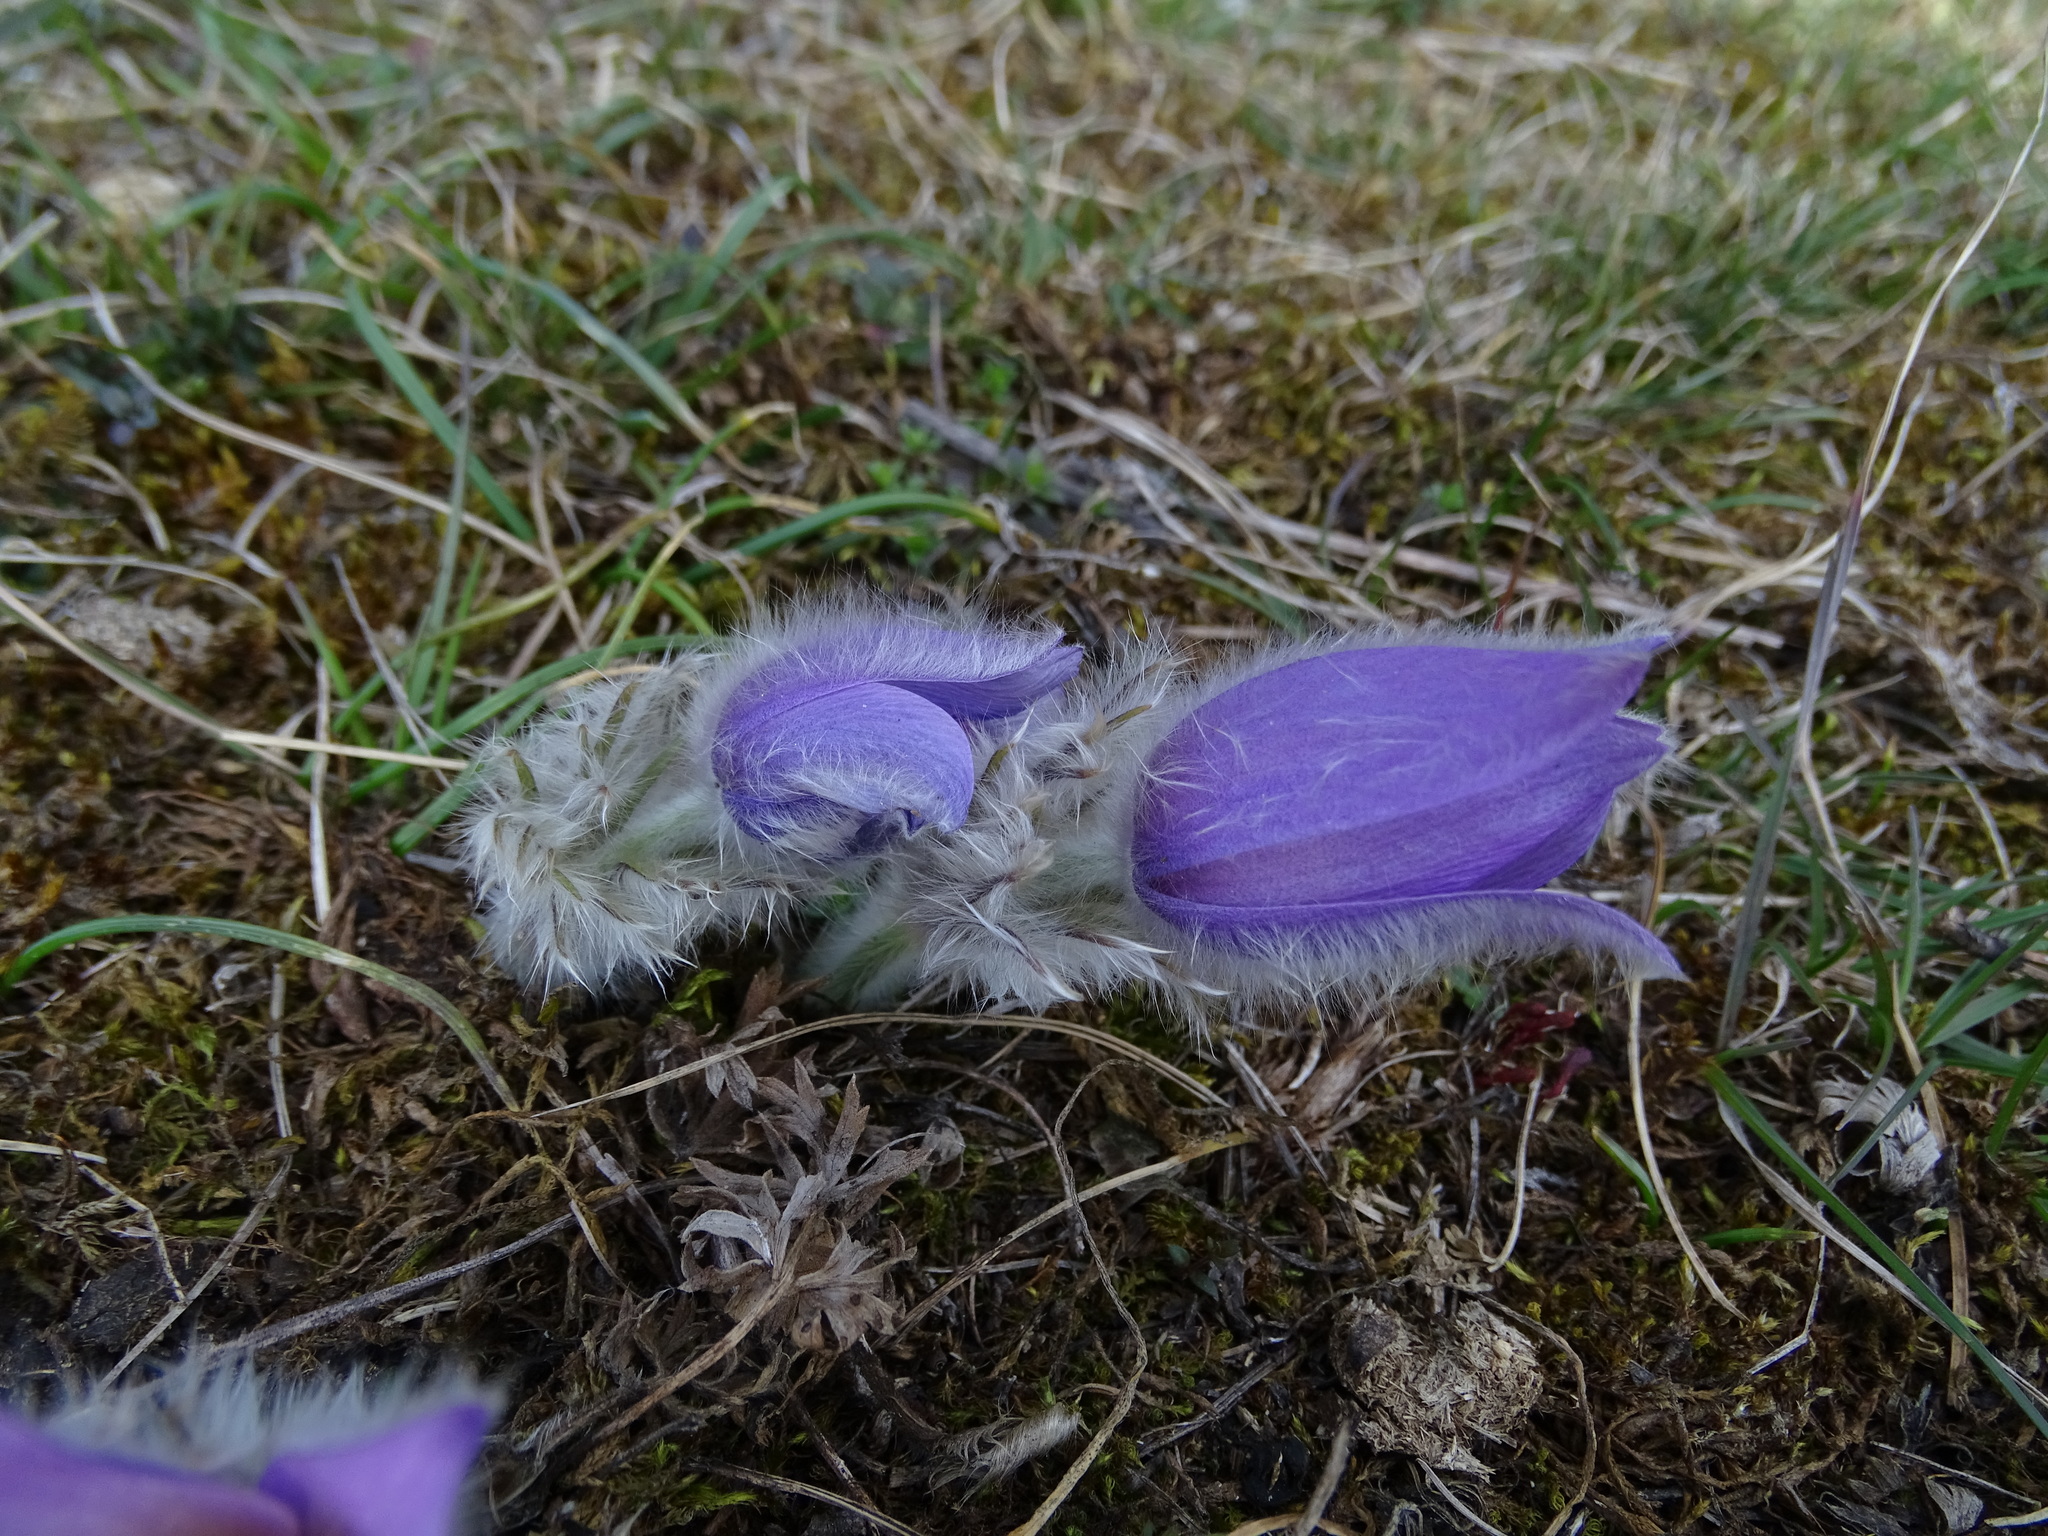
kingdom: Plantae
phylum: Tracheophyta
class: Magnoliopsida
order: Ranunculales
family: Ranunculaceae
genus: Pulsatilla
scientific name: Pulsatilla grandis
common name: Greater pasque flower
